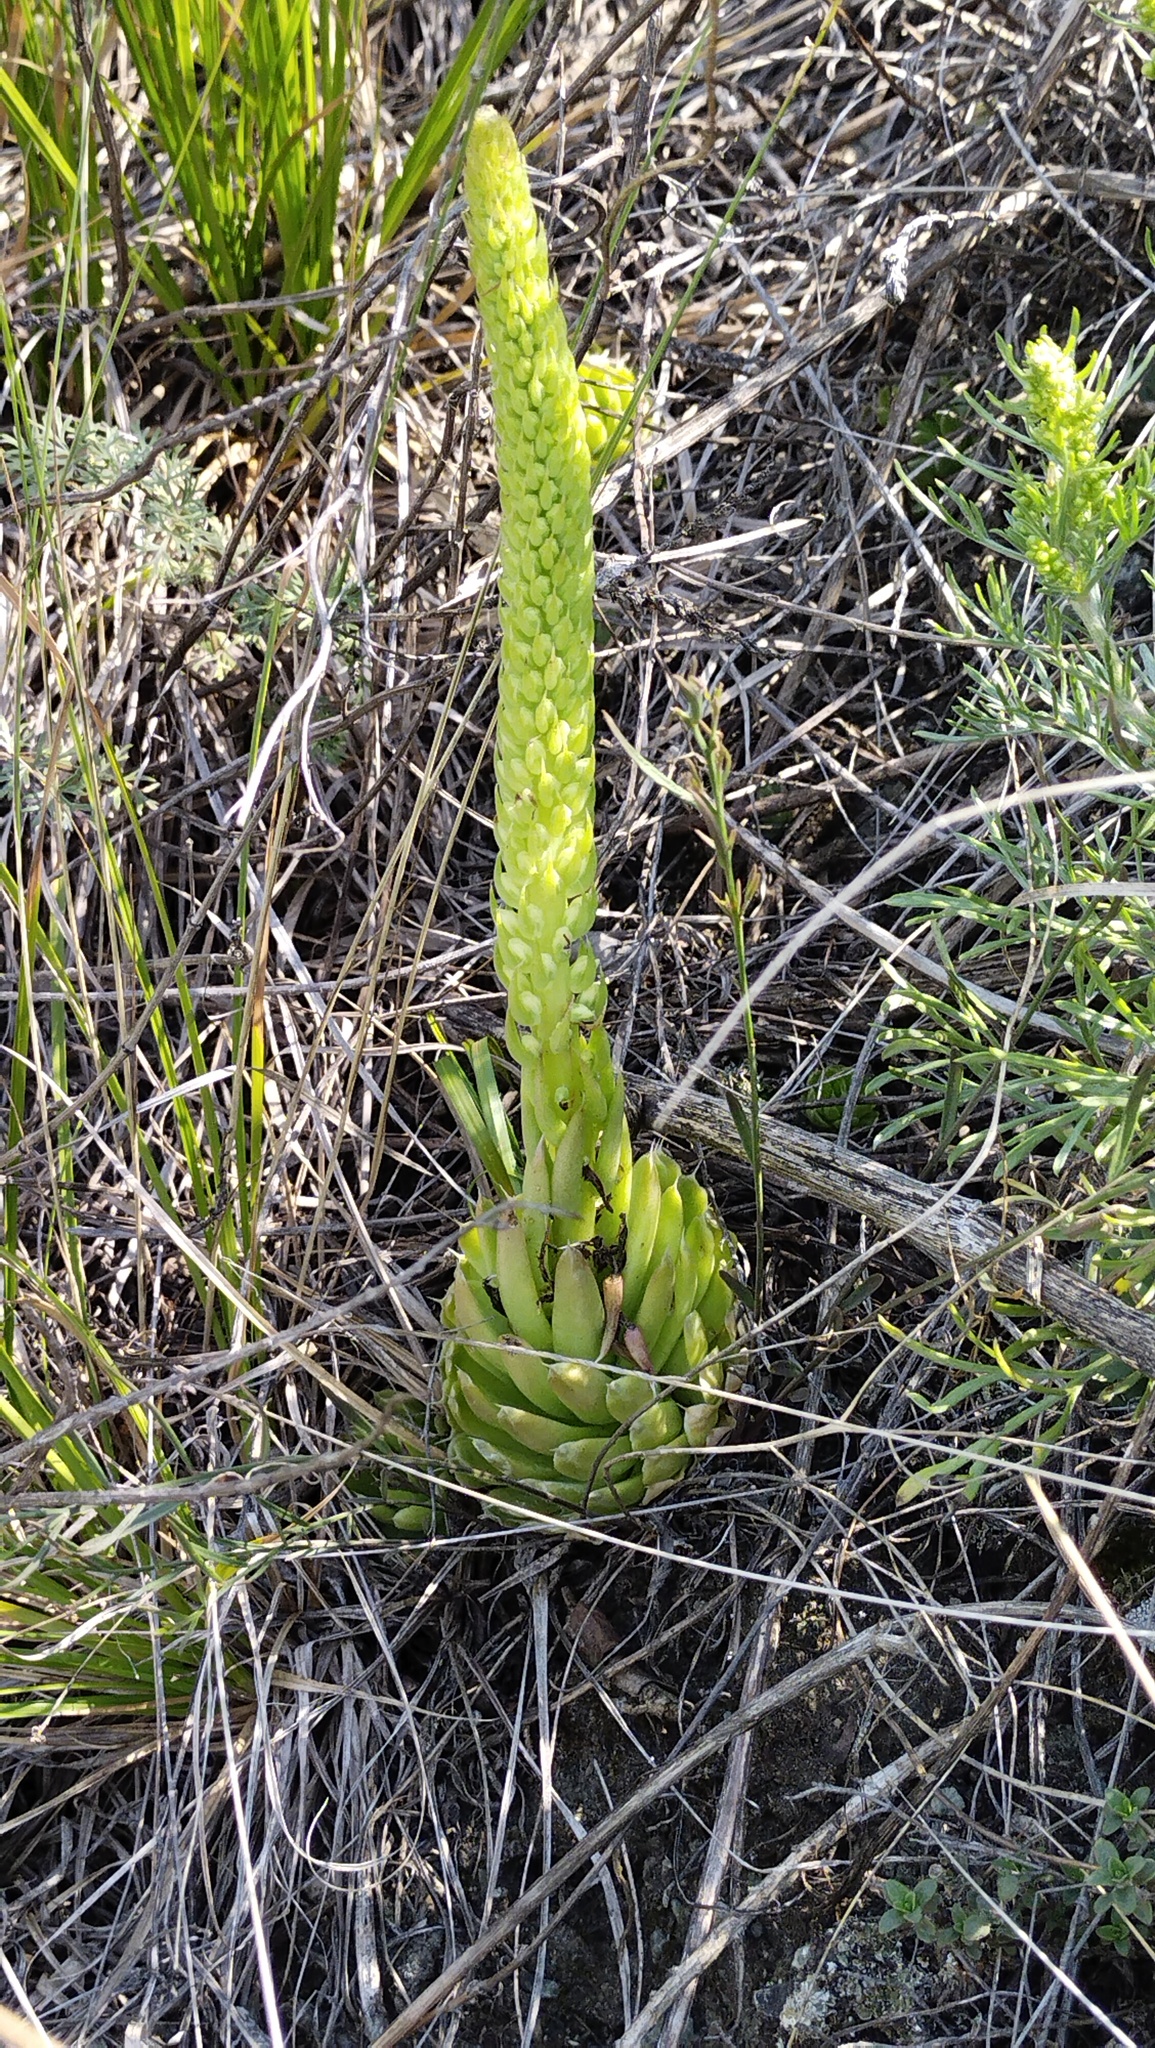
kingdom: Plantae
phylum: Tracheophyta
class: Magnoliopsida
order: Saxifragales
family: Crassulaceae
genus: Orostachys
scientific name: Orostachys spinosa
